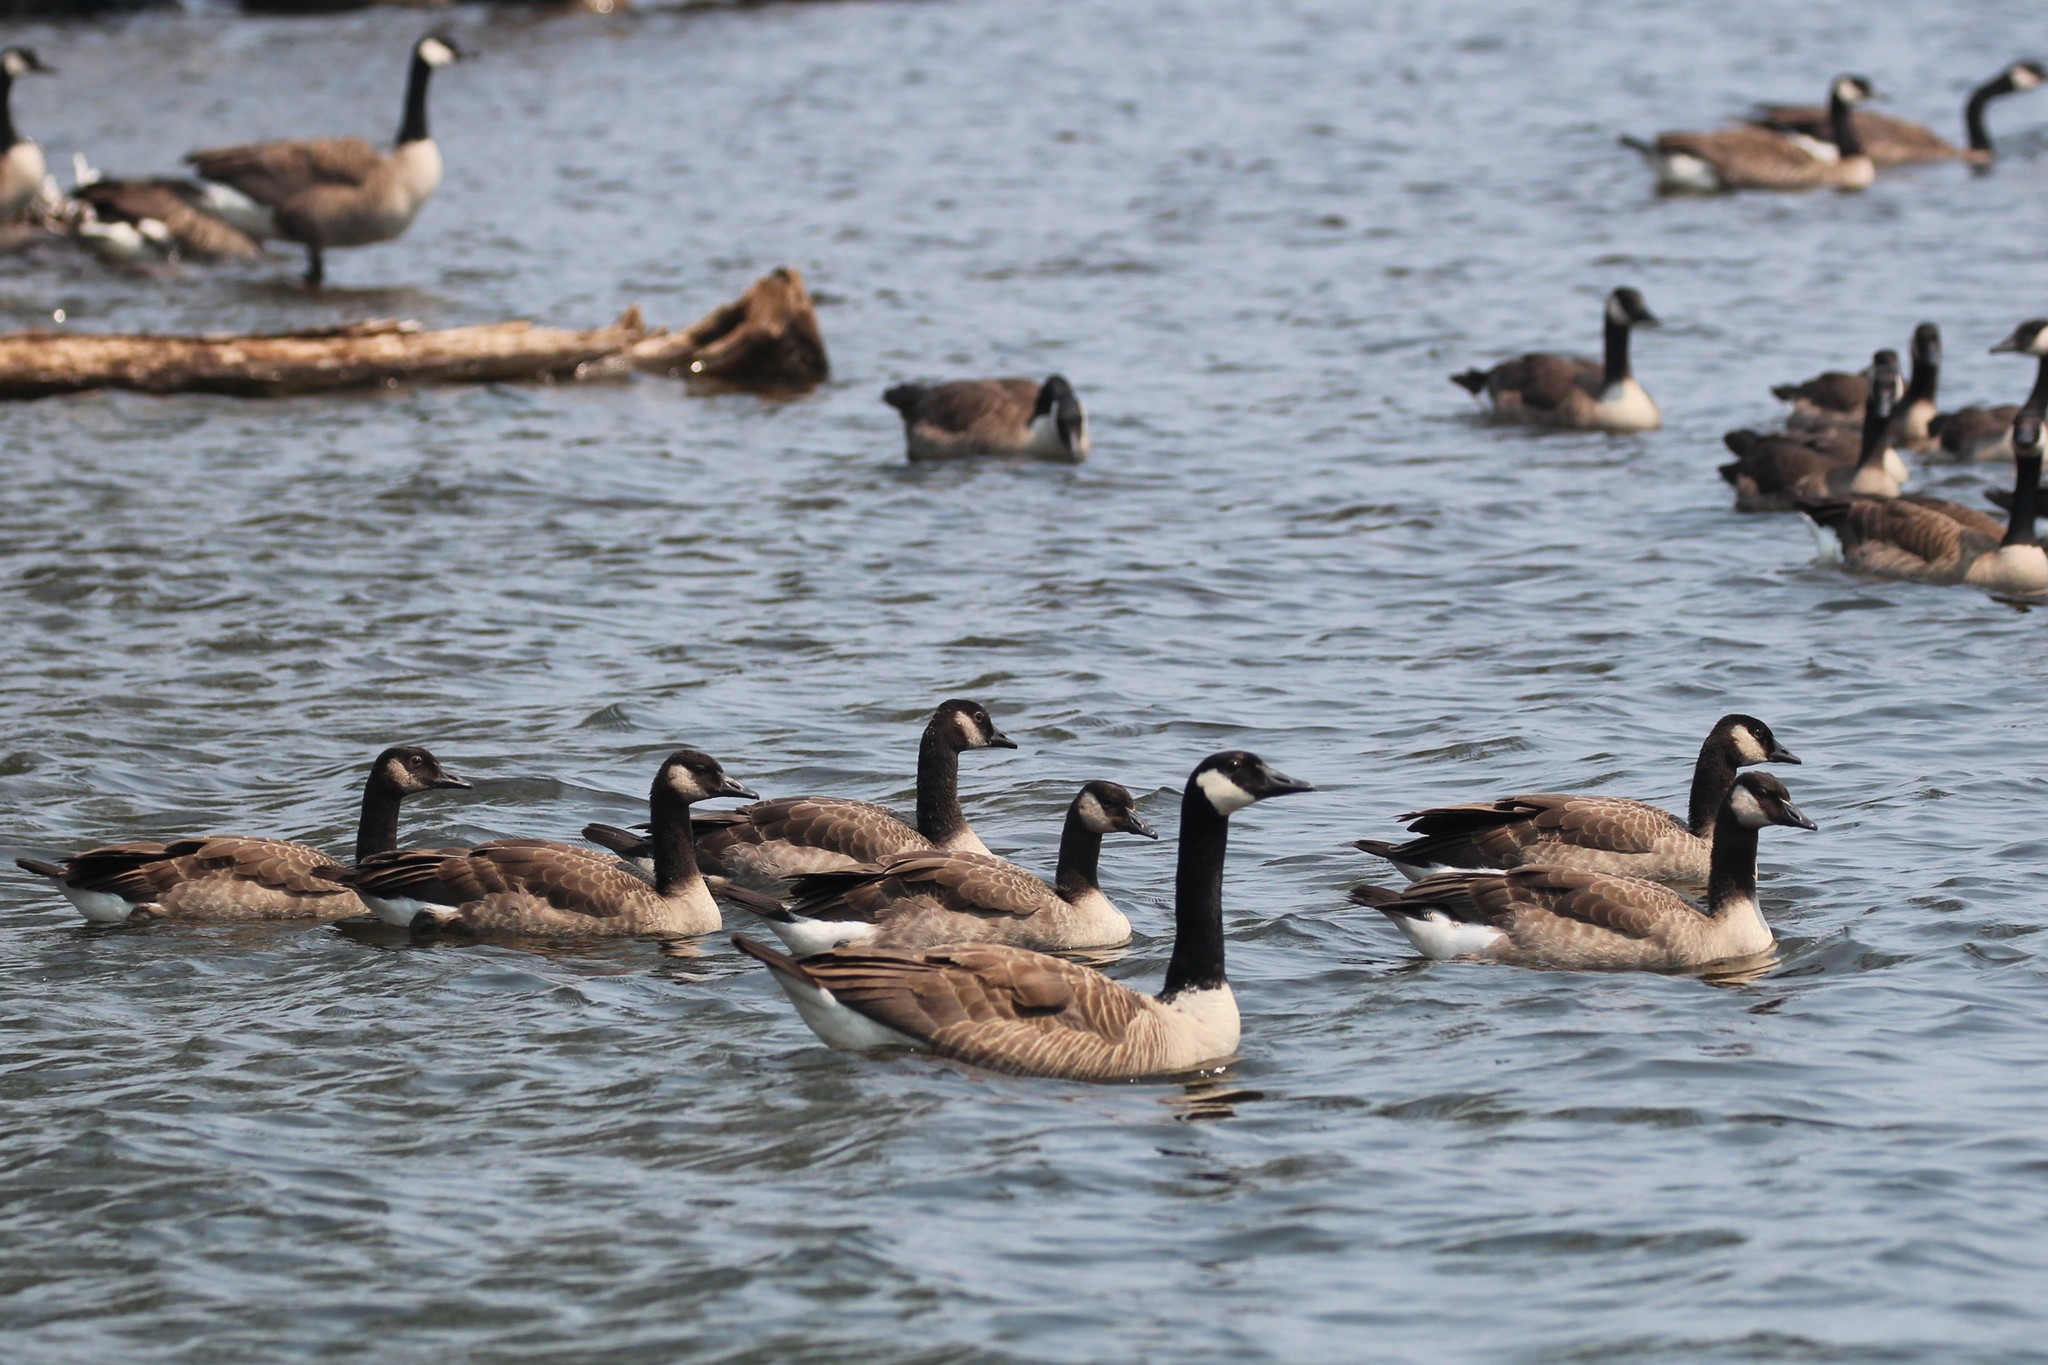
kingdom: Animalia
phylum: Chordata
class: Aves
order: Anseriformes
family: Anatidae
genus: Branta
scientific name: Branta canadensis
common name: Canada goose
